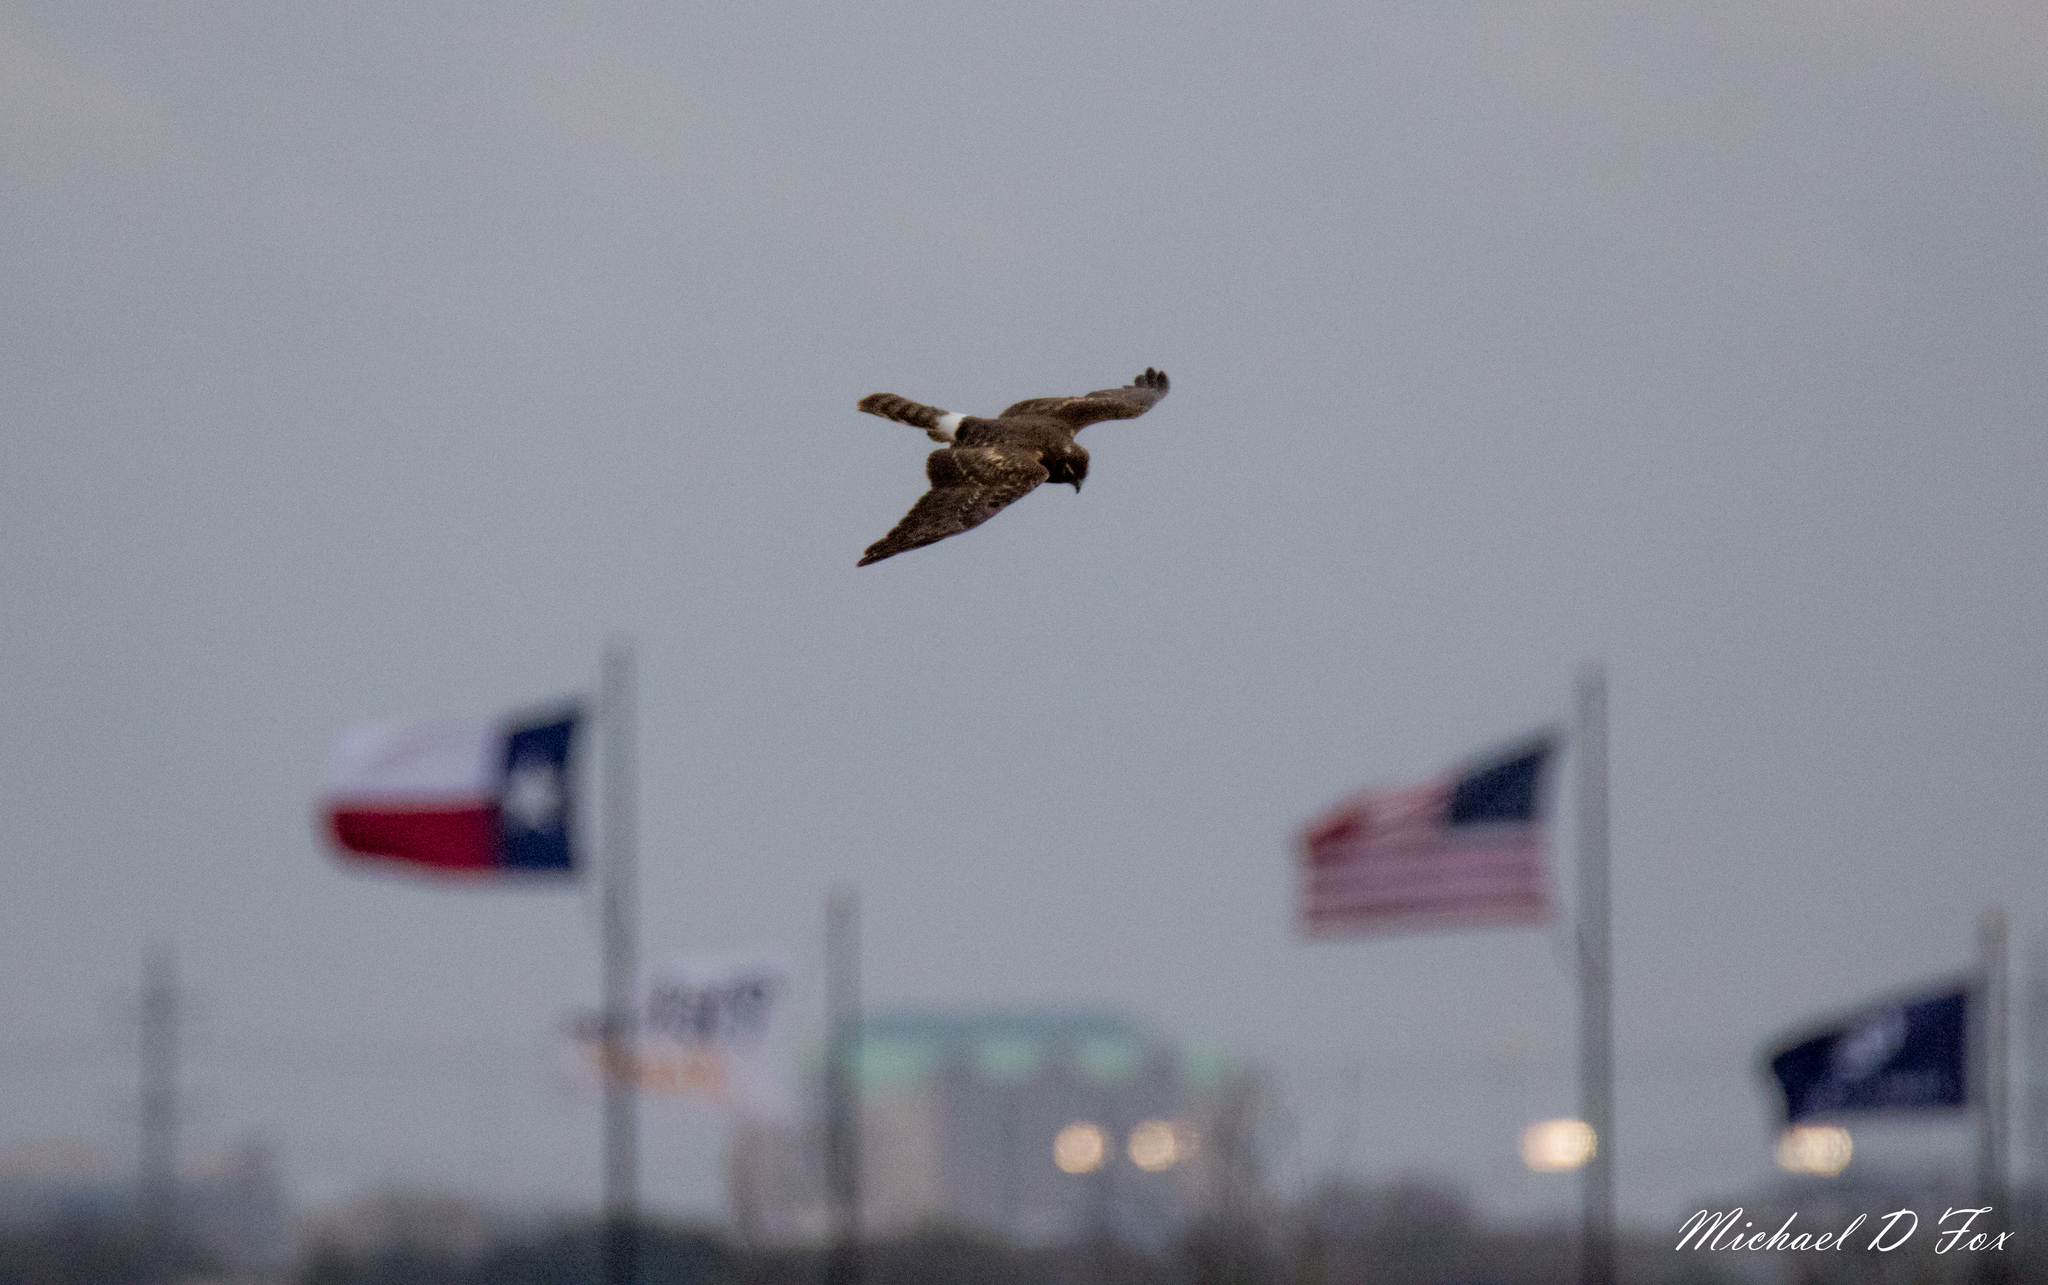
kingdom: Animalia
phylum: Chordata
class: Aves
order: Accipitriformes
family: Accipitridae
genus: Circus
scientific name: Circus cyaneus
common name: Hen harrier
